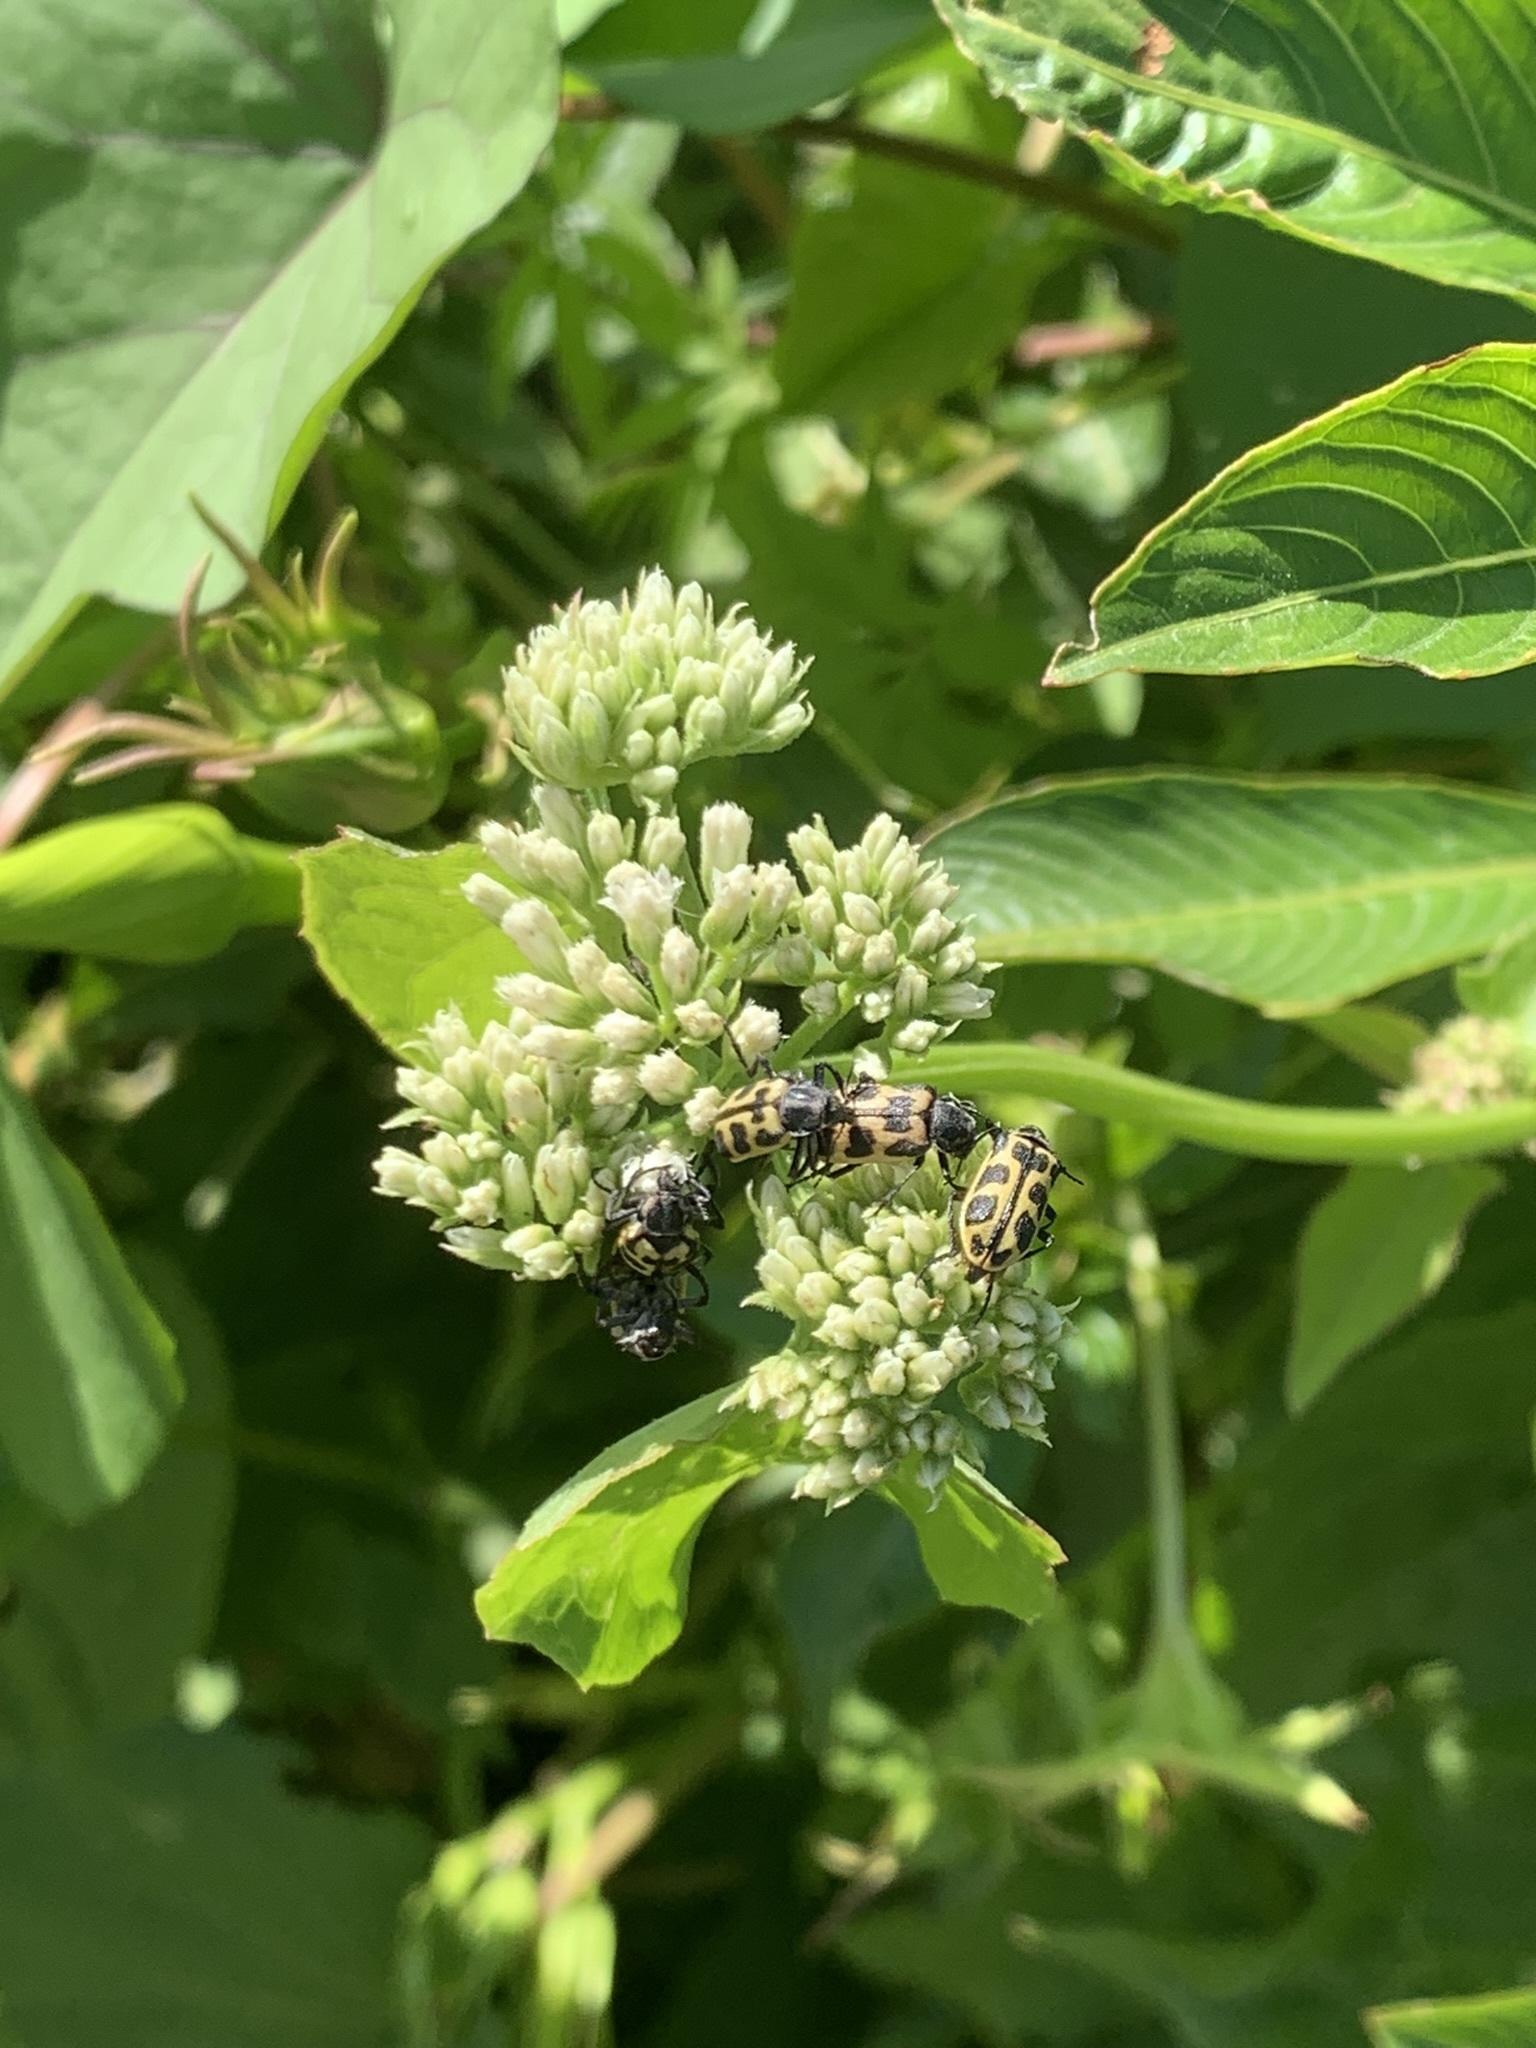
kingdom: Animalia
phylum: Arthropoda
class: Insecta
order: Coleoptera
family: Melyridae
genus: Astylus
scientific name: Astylus atromaculatus
